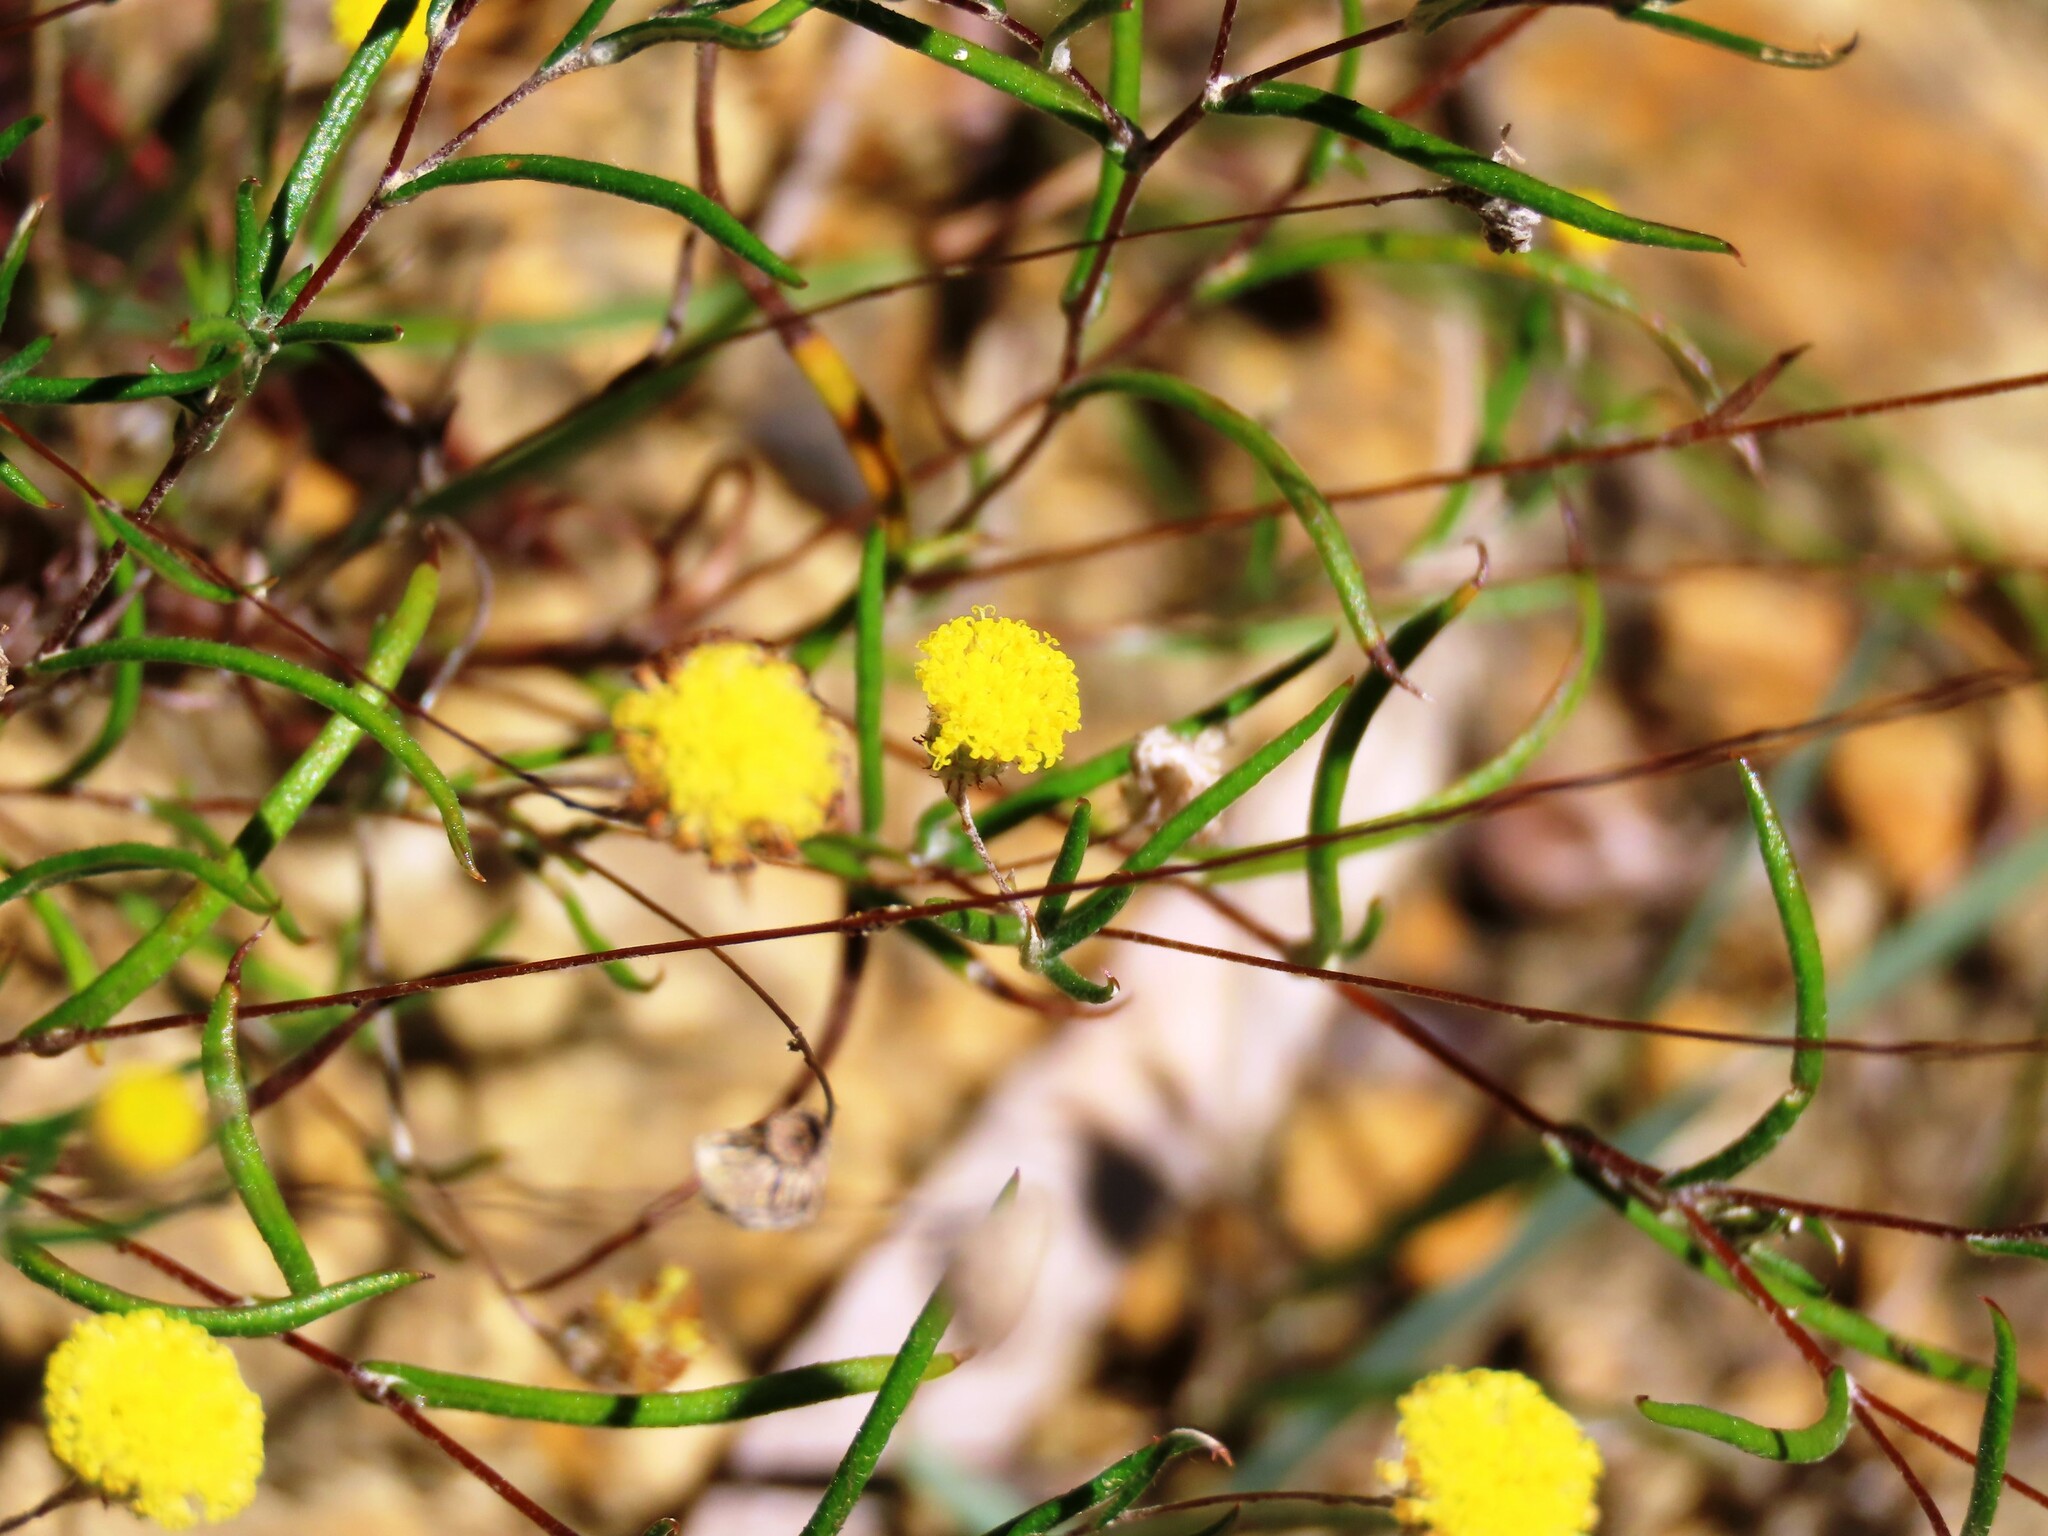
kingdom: Plantae
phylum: Tracheophyta
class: Magnoliopsida
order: Asterales
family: Asteraceae
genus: Leptorhynchos
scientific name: Leptorhynchos tenuifolius
